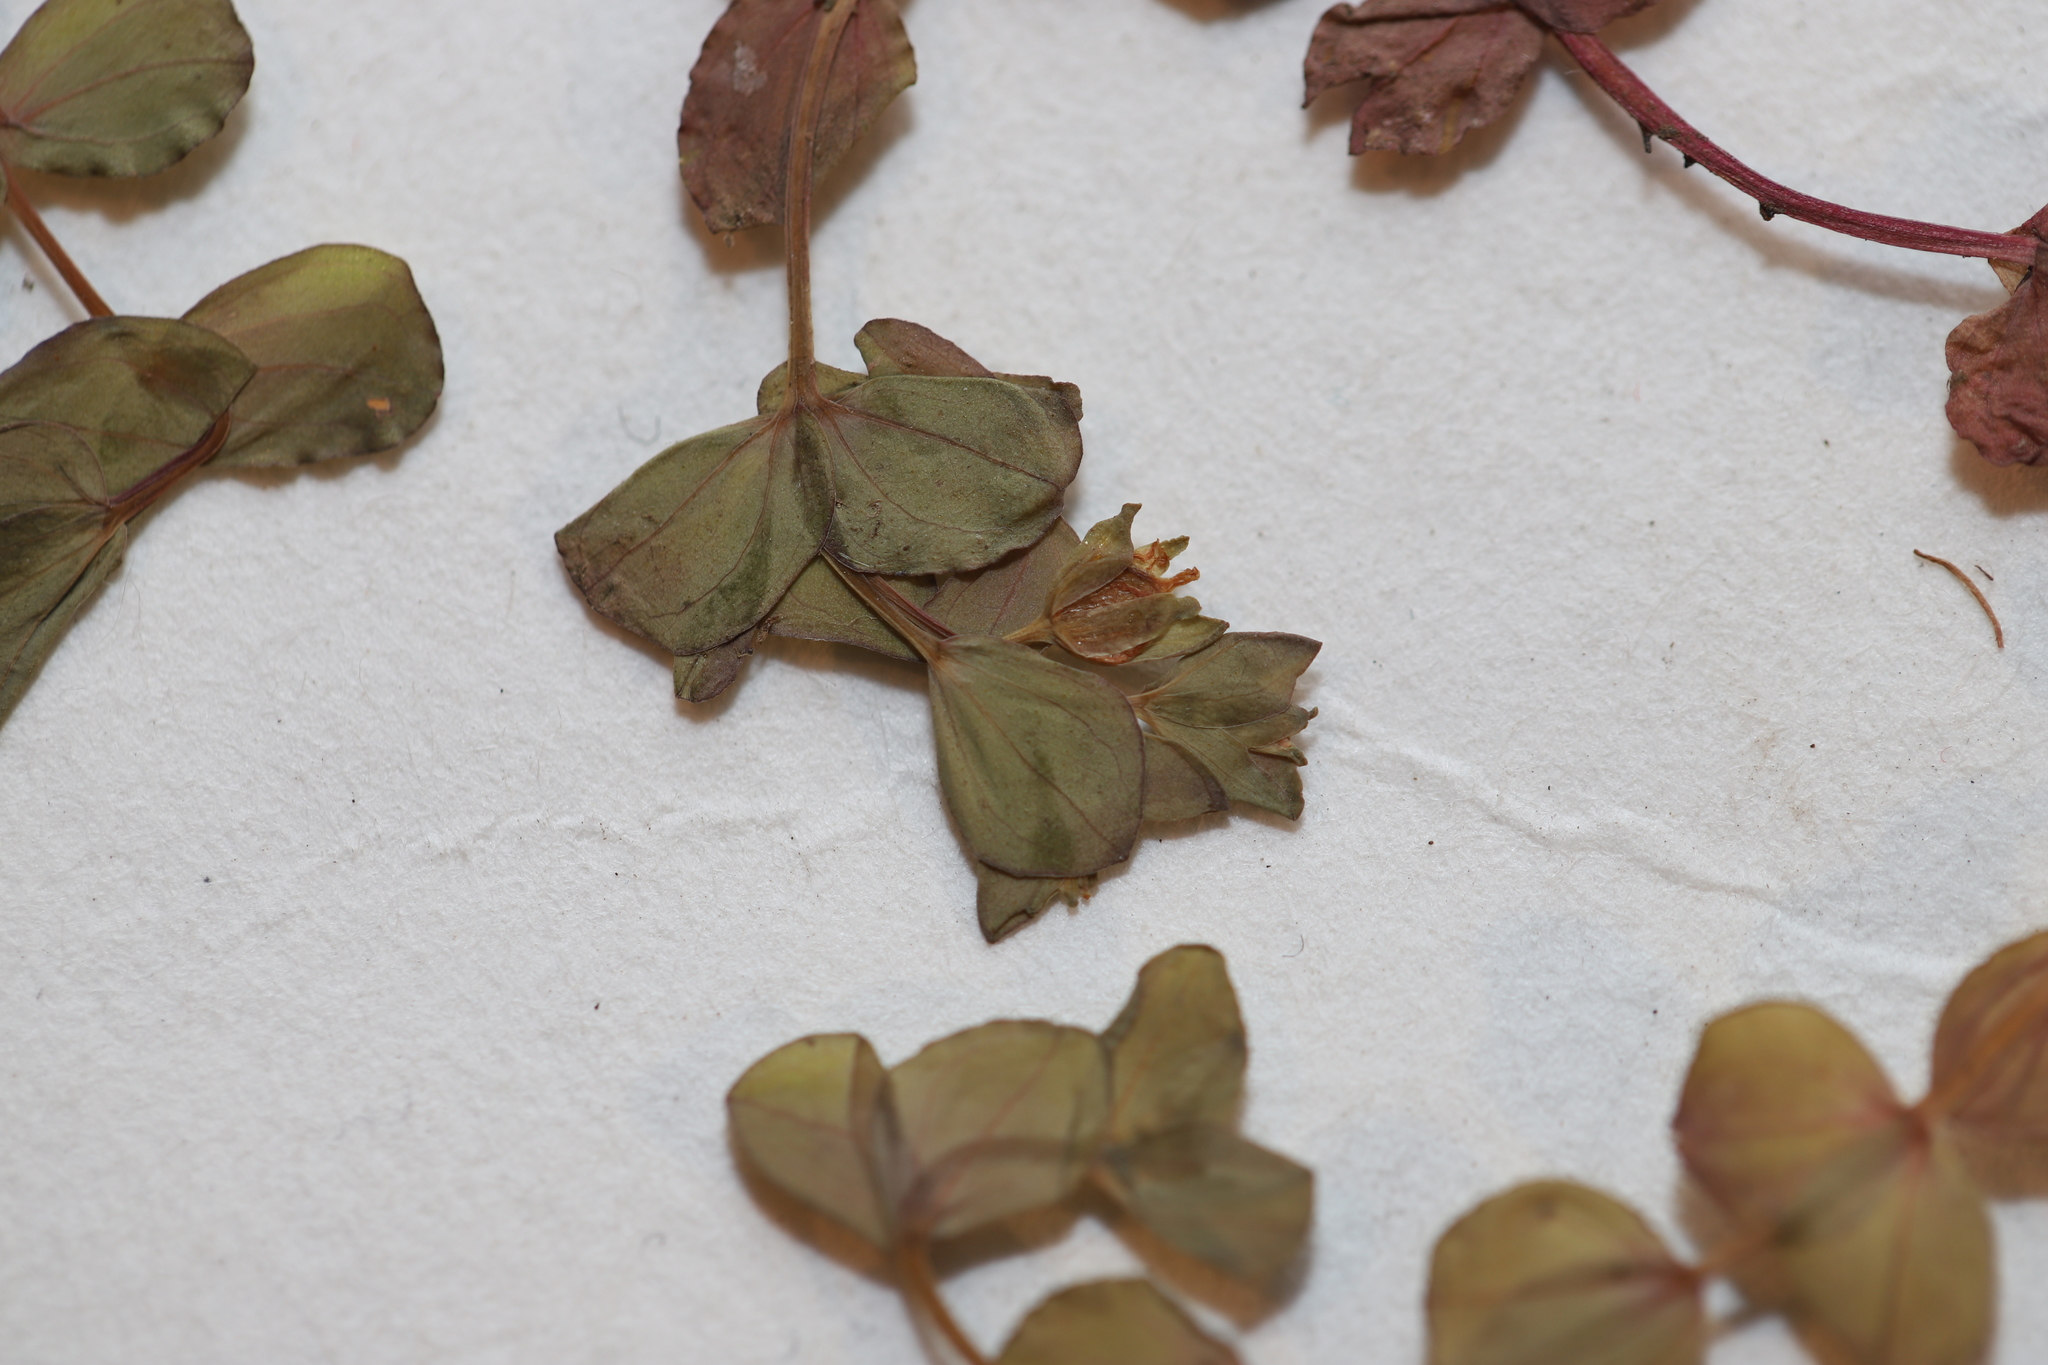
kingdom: Plantae
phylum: Tracheophyta
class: Magnoliopsida
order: Malpighiales
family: Hypericaceae
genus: Hypericum
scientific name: Hypericum mutilum
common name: Dwarf st. john's-wort
